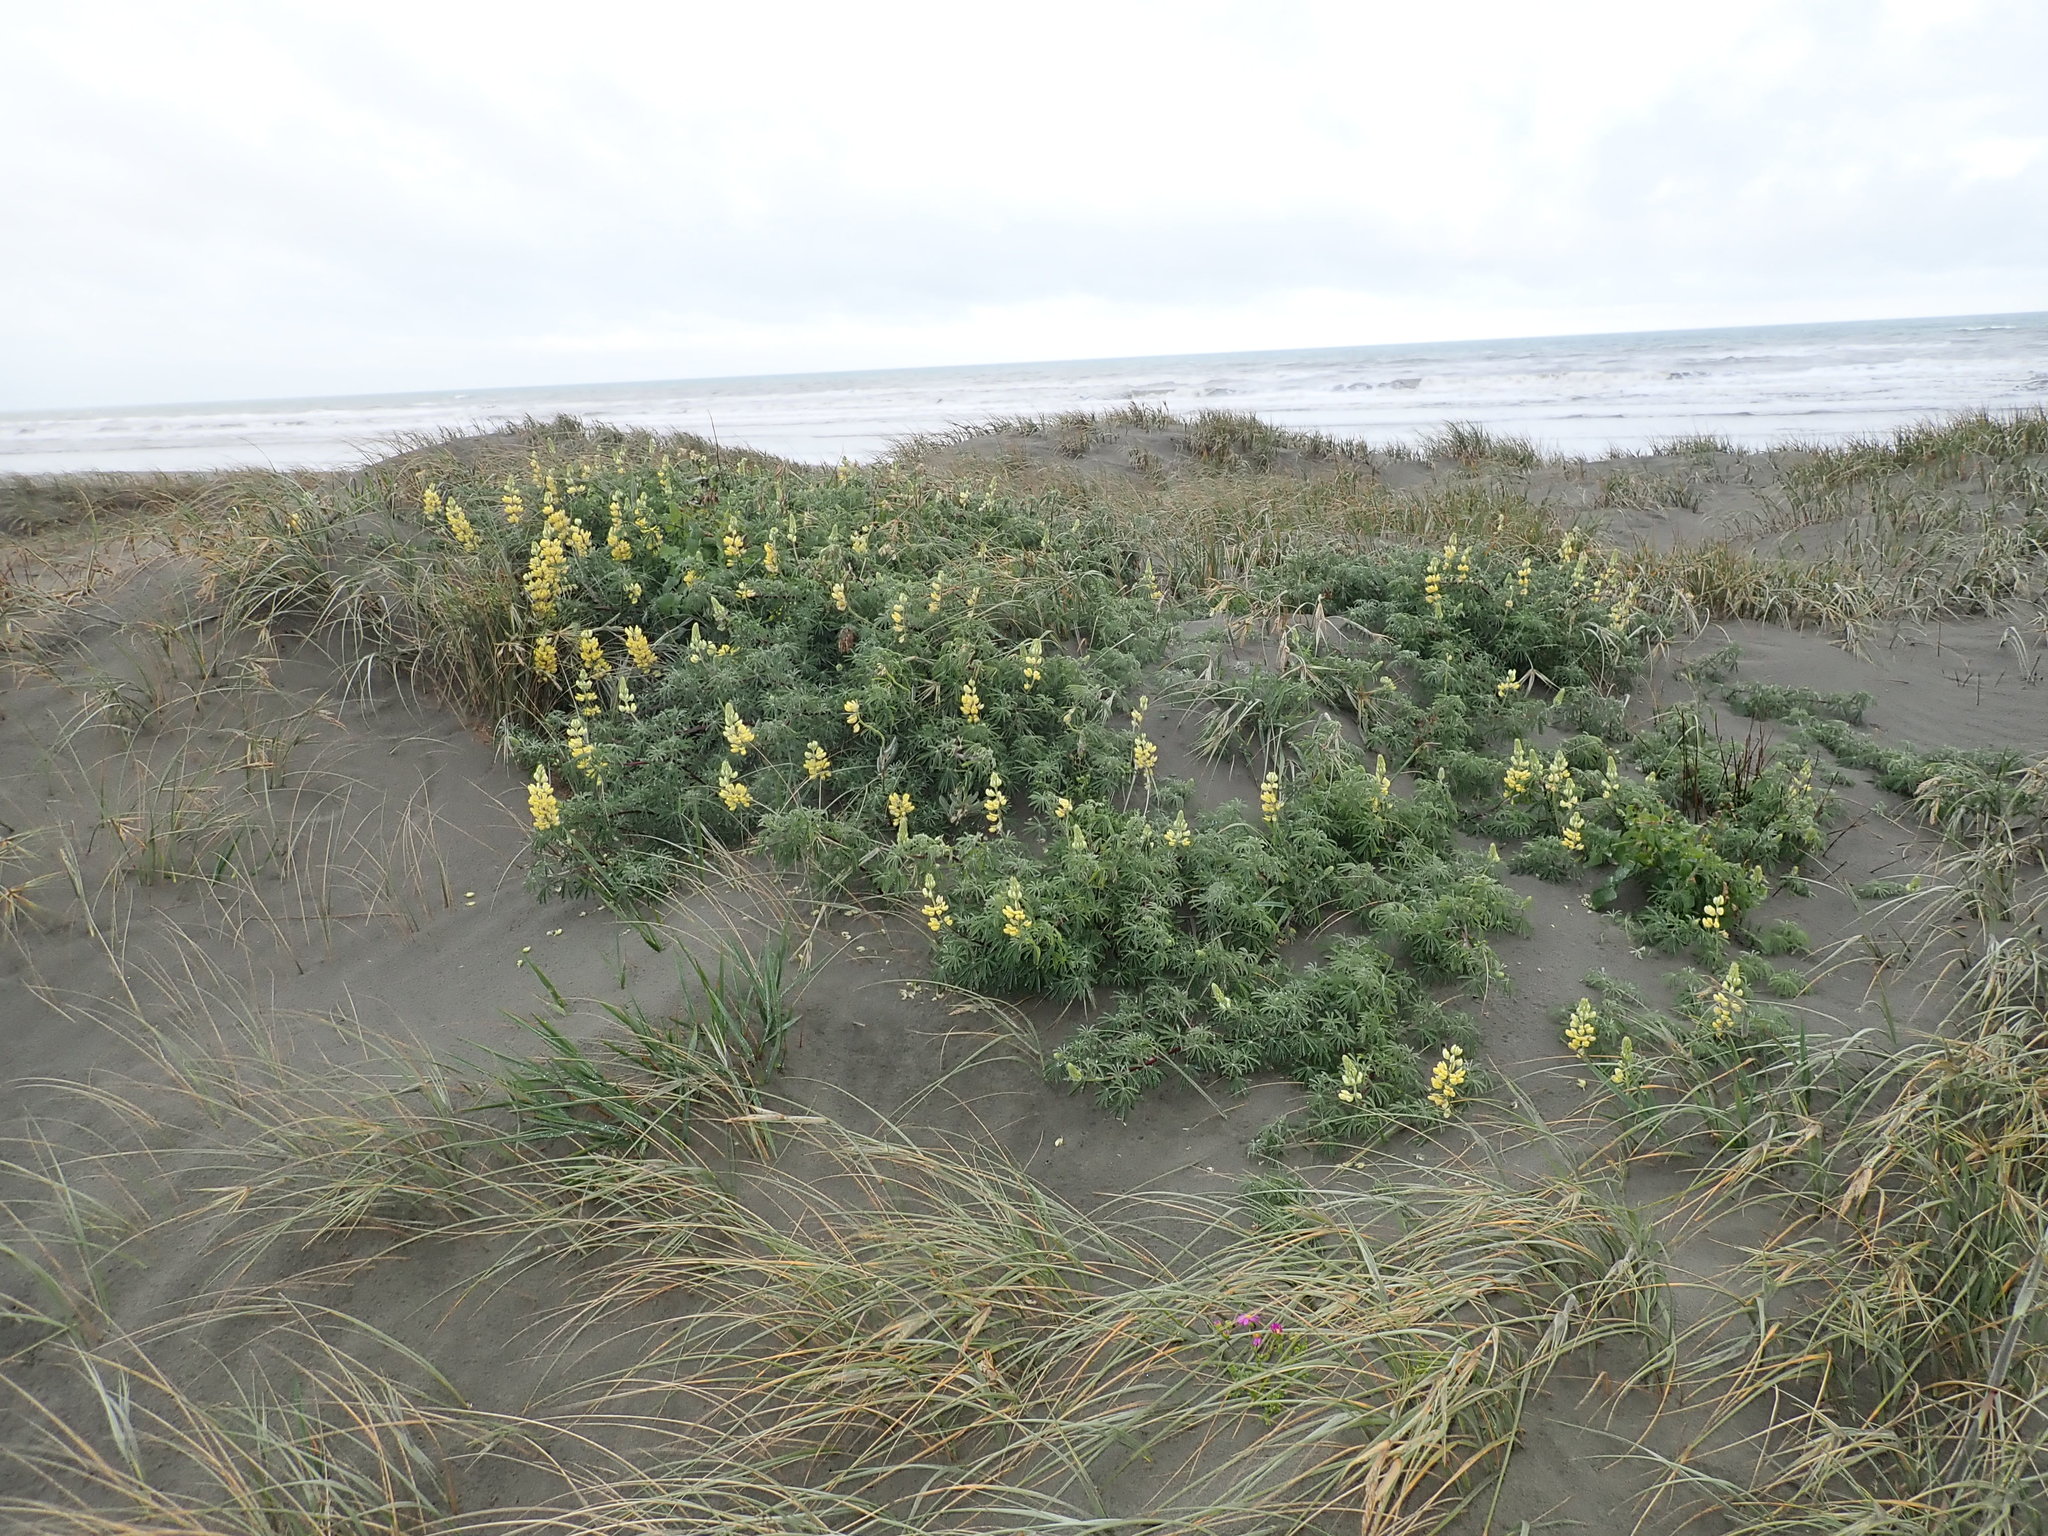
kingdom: Plantae
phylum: Tracheophyta
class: Magnoliopsida
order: Fabales
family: Fabaceae
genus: Lupinus
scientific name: Lupinus arboreus
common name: Yellow bush lupine
